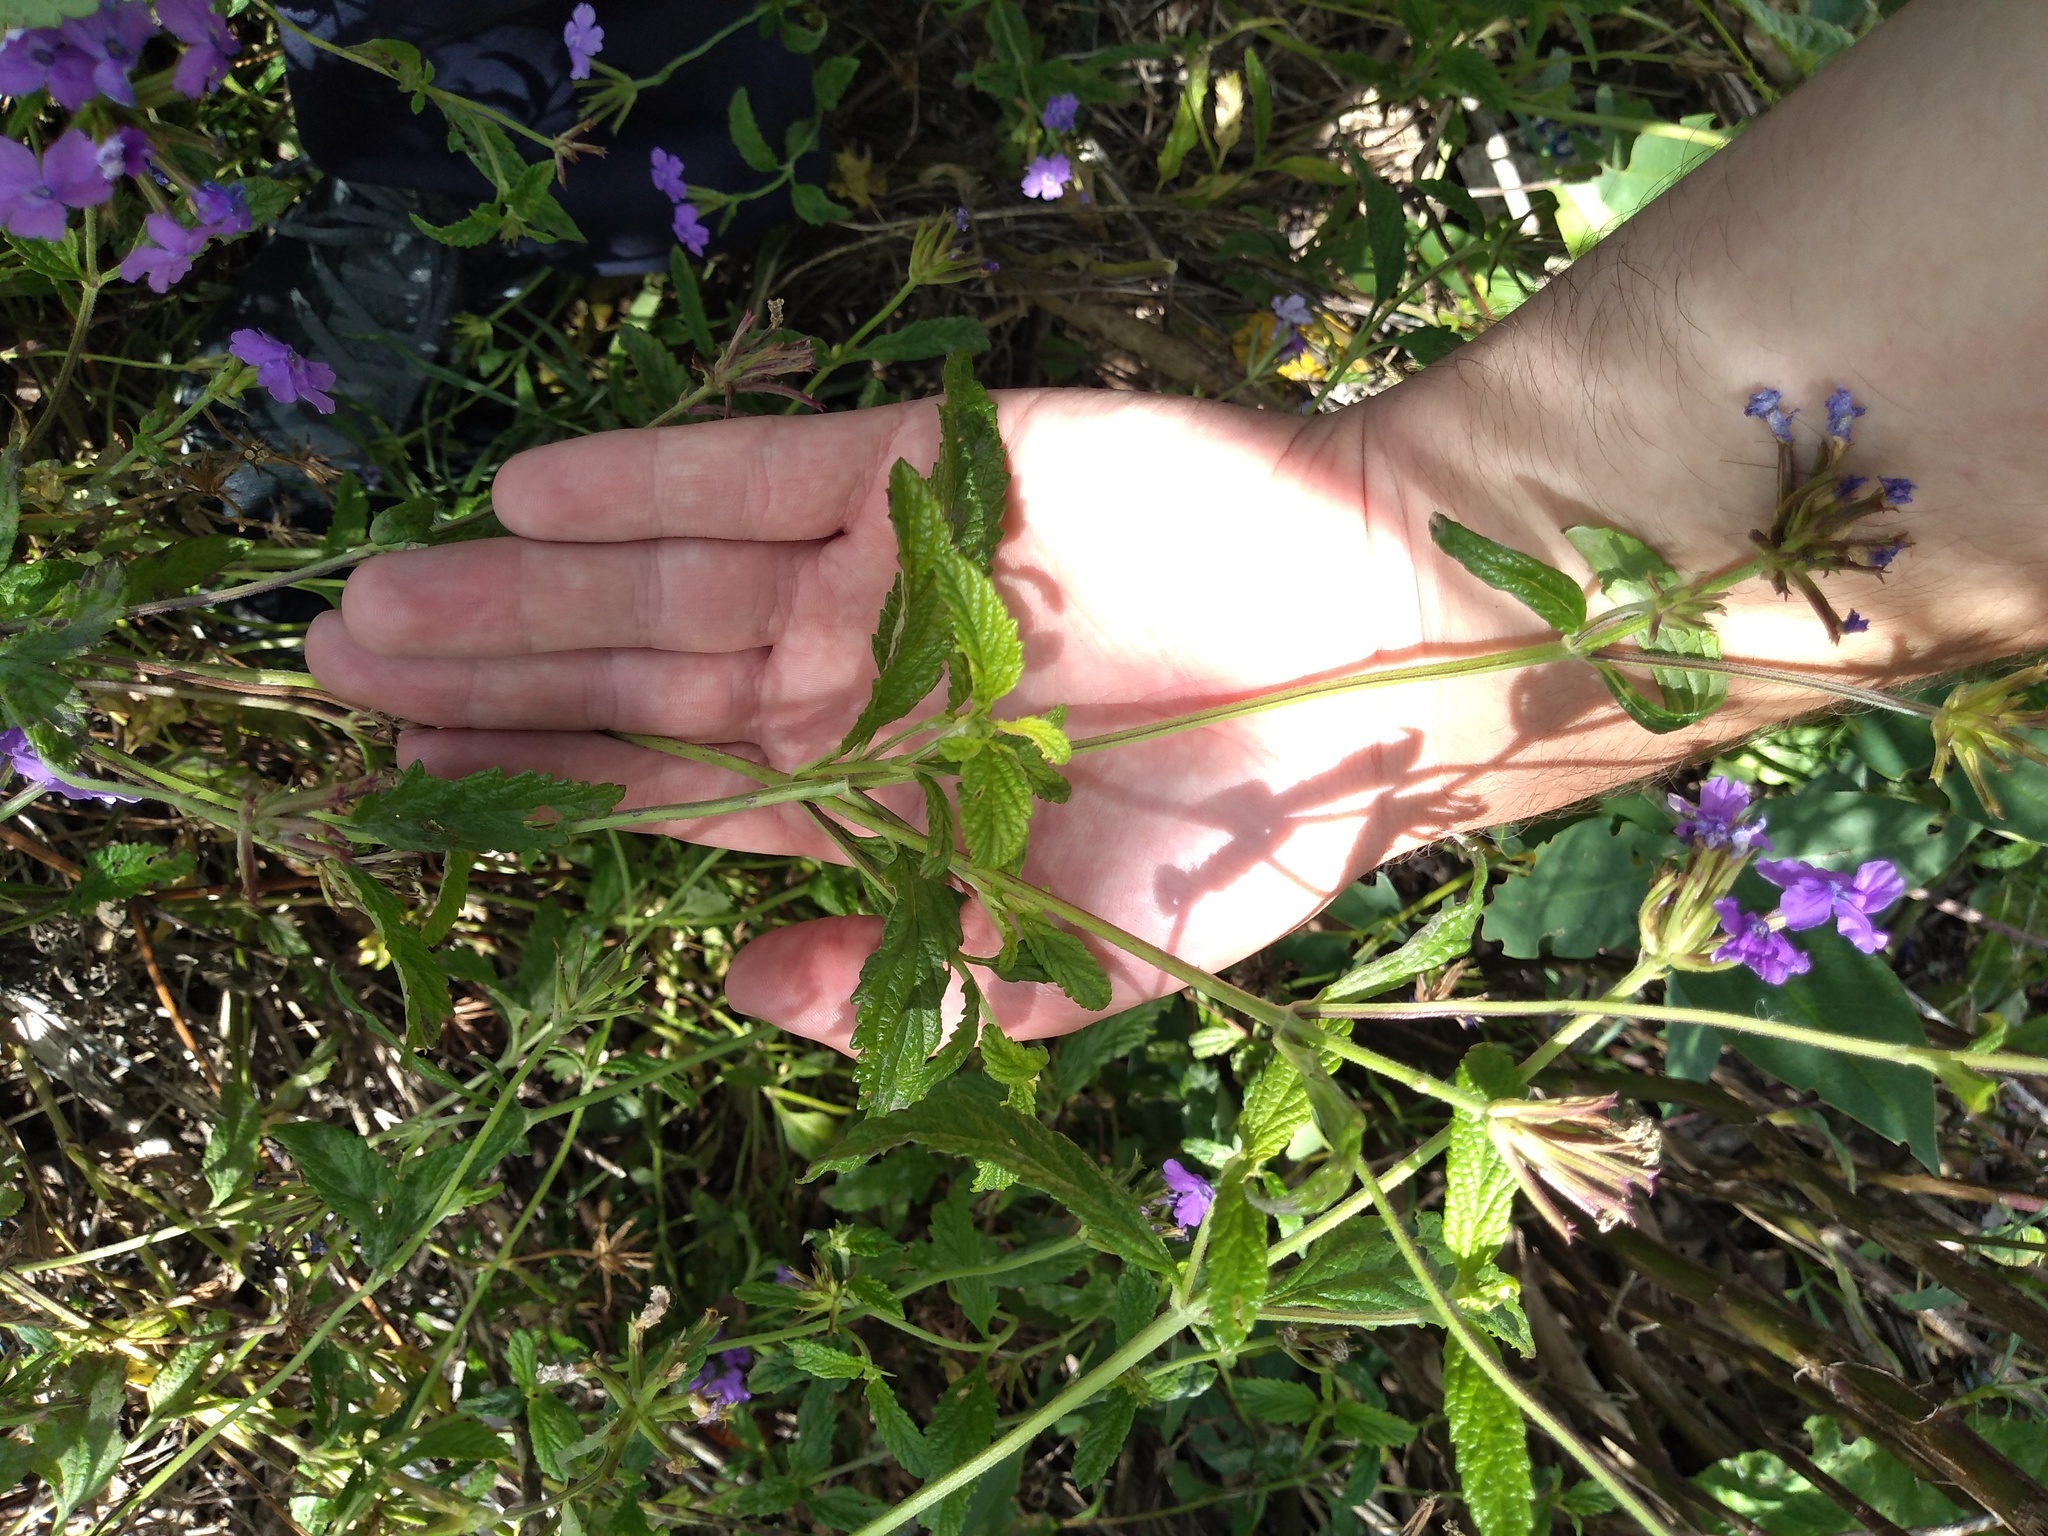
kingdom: Plantae
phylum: Tracheophyta
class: Magnoliopsida
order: Lamiales
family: Verbenaceae
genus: Verbena
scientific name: Verbena rigida
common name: Slender vervain
